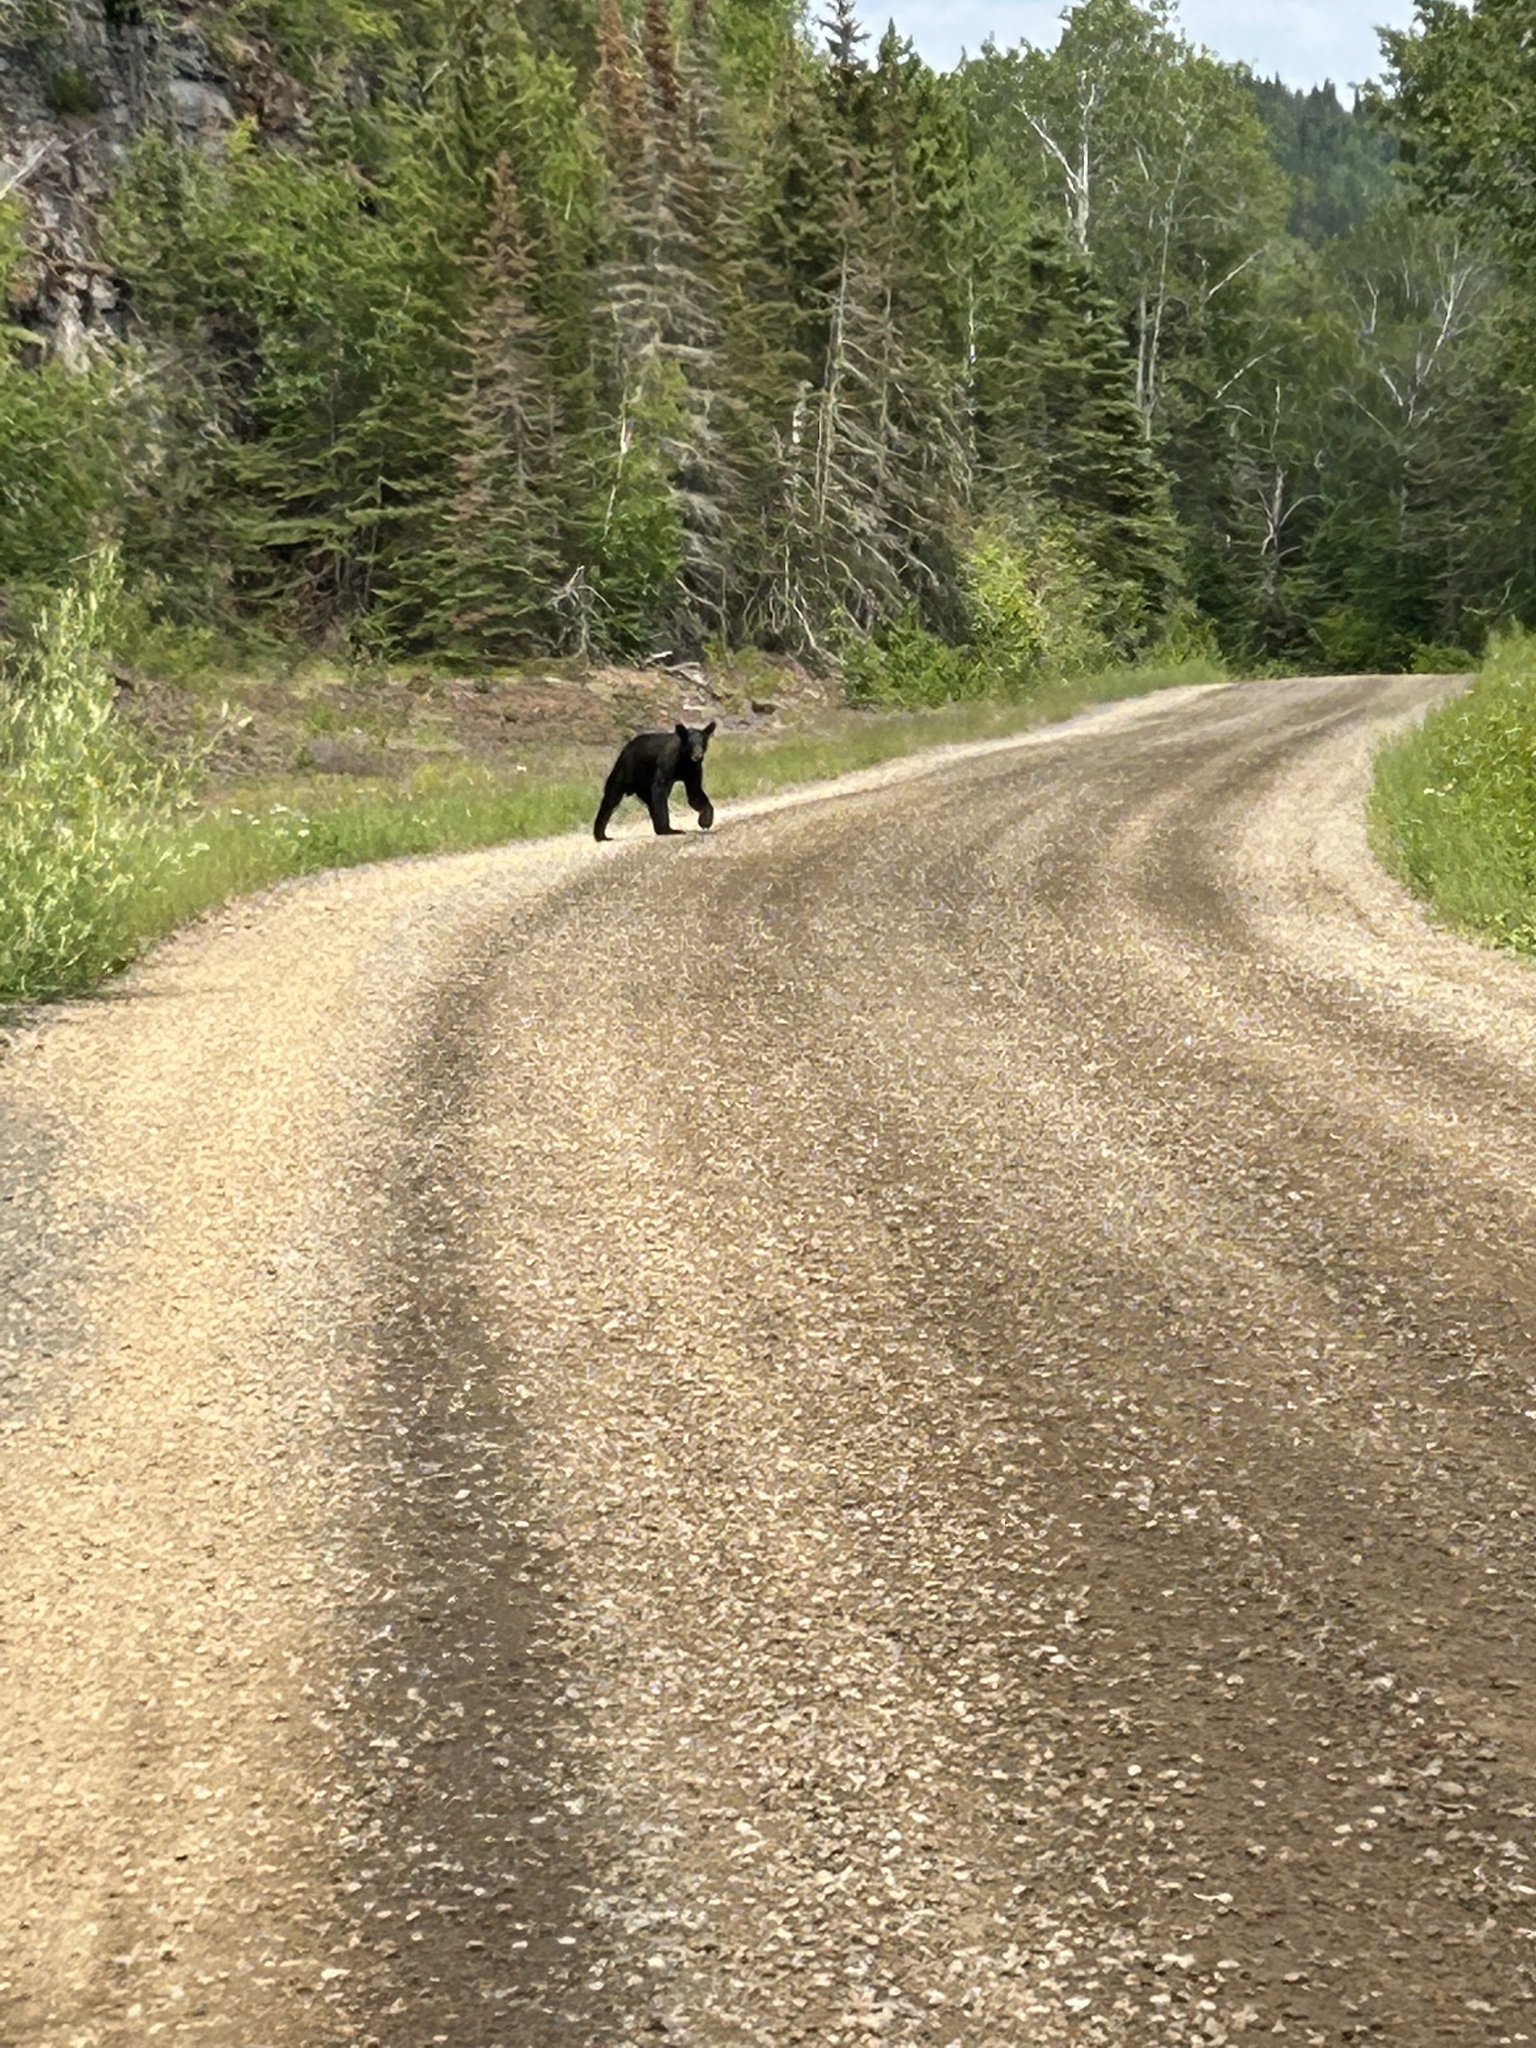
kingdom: Animalia
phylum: Chordata
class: Mammalia
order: Carnivora
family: Ursidae
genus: Ursus
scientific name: Ursus americanus
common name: American black bear
